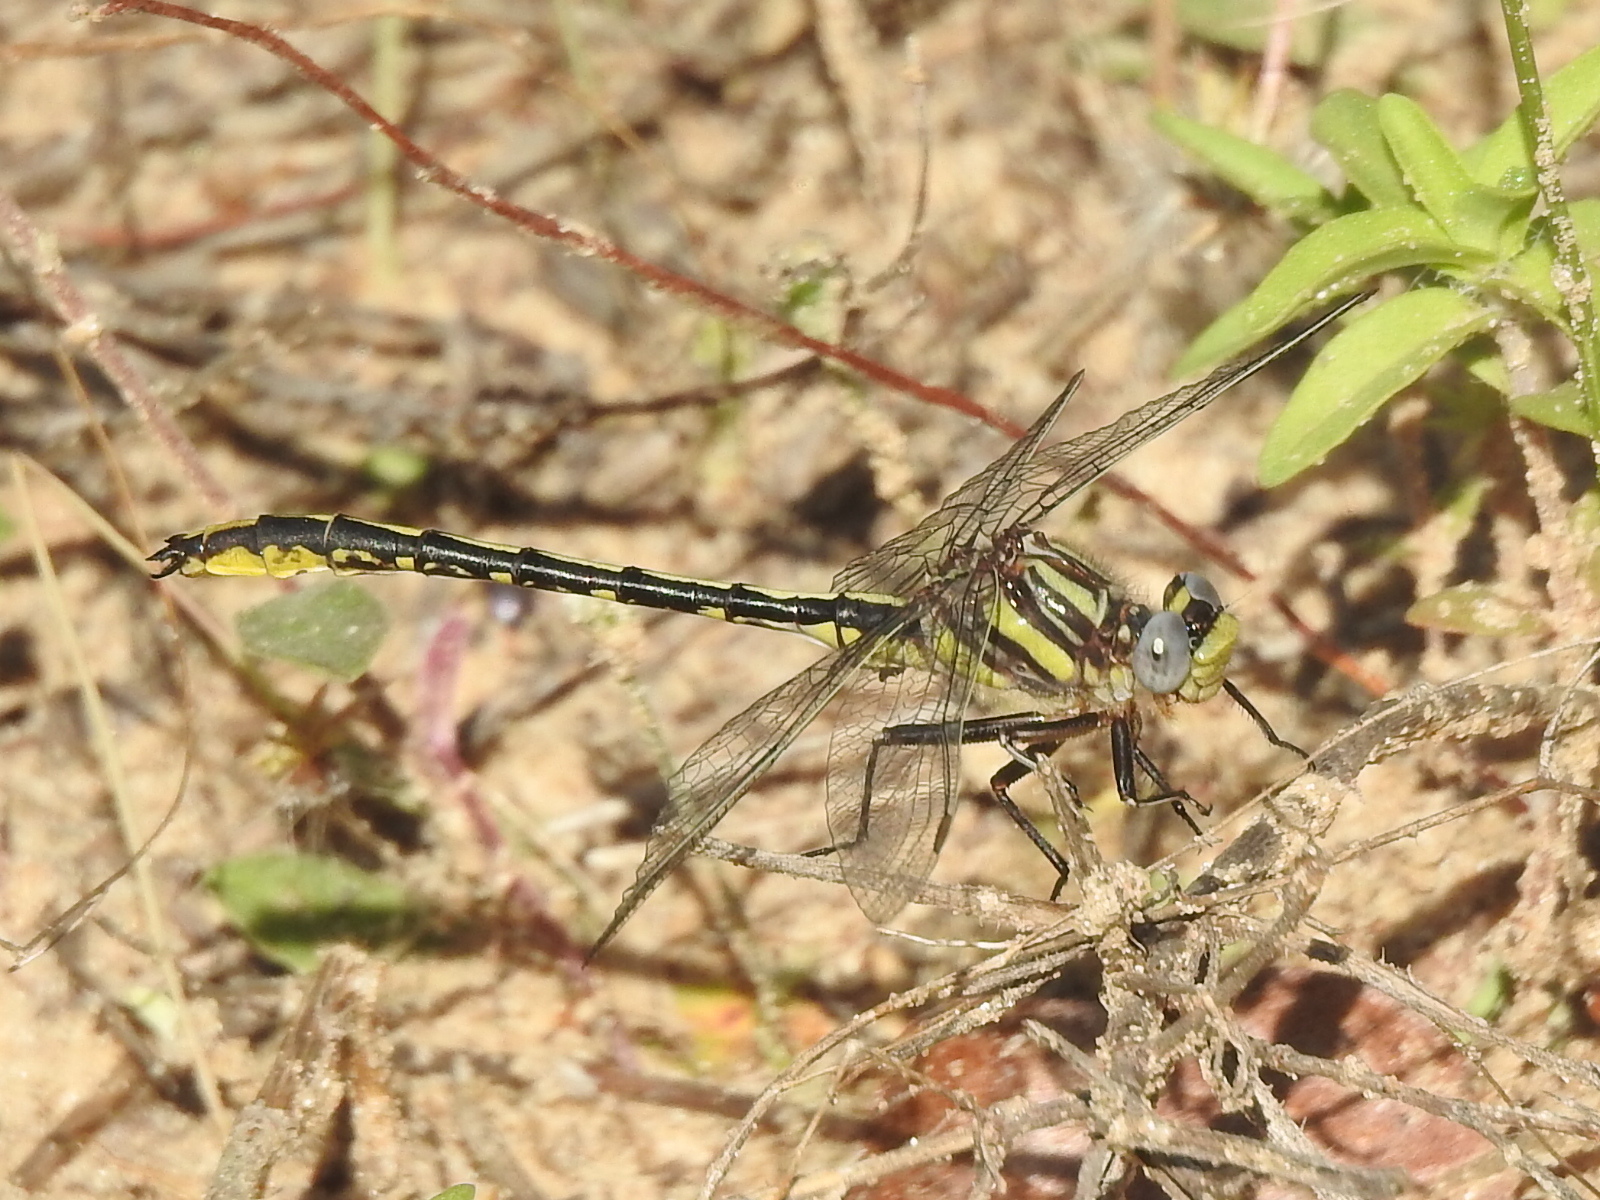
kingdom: Animalia
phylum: Arthropoda
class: Insecta
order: Odonata
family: Gomphidae
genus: Phanogomphus
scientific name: Phanogomphus militaris
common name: Sulphur-tipped clubtail
